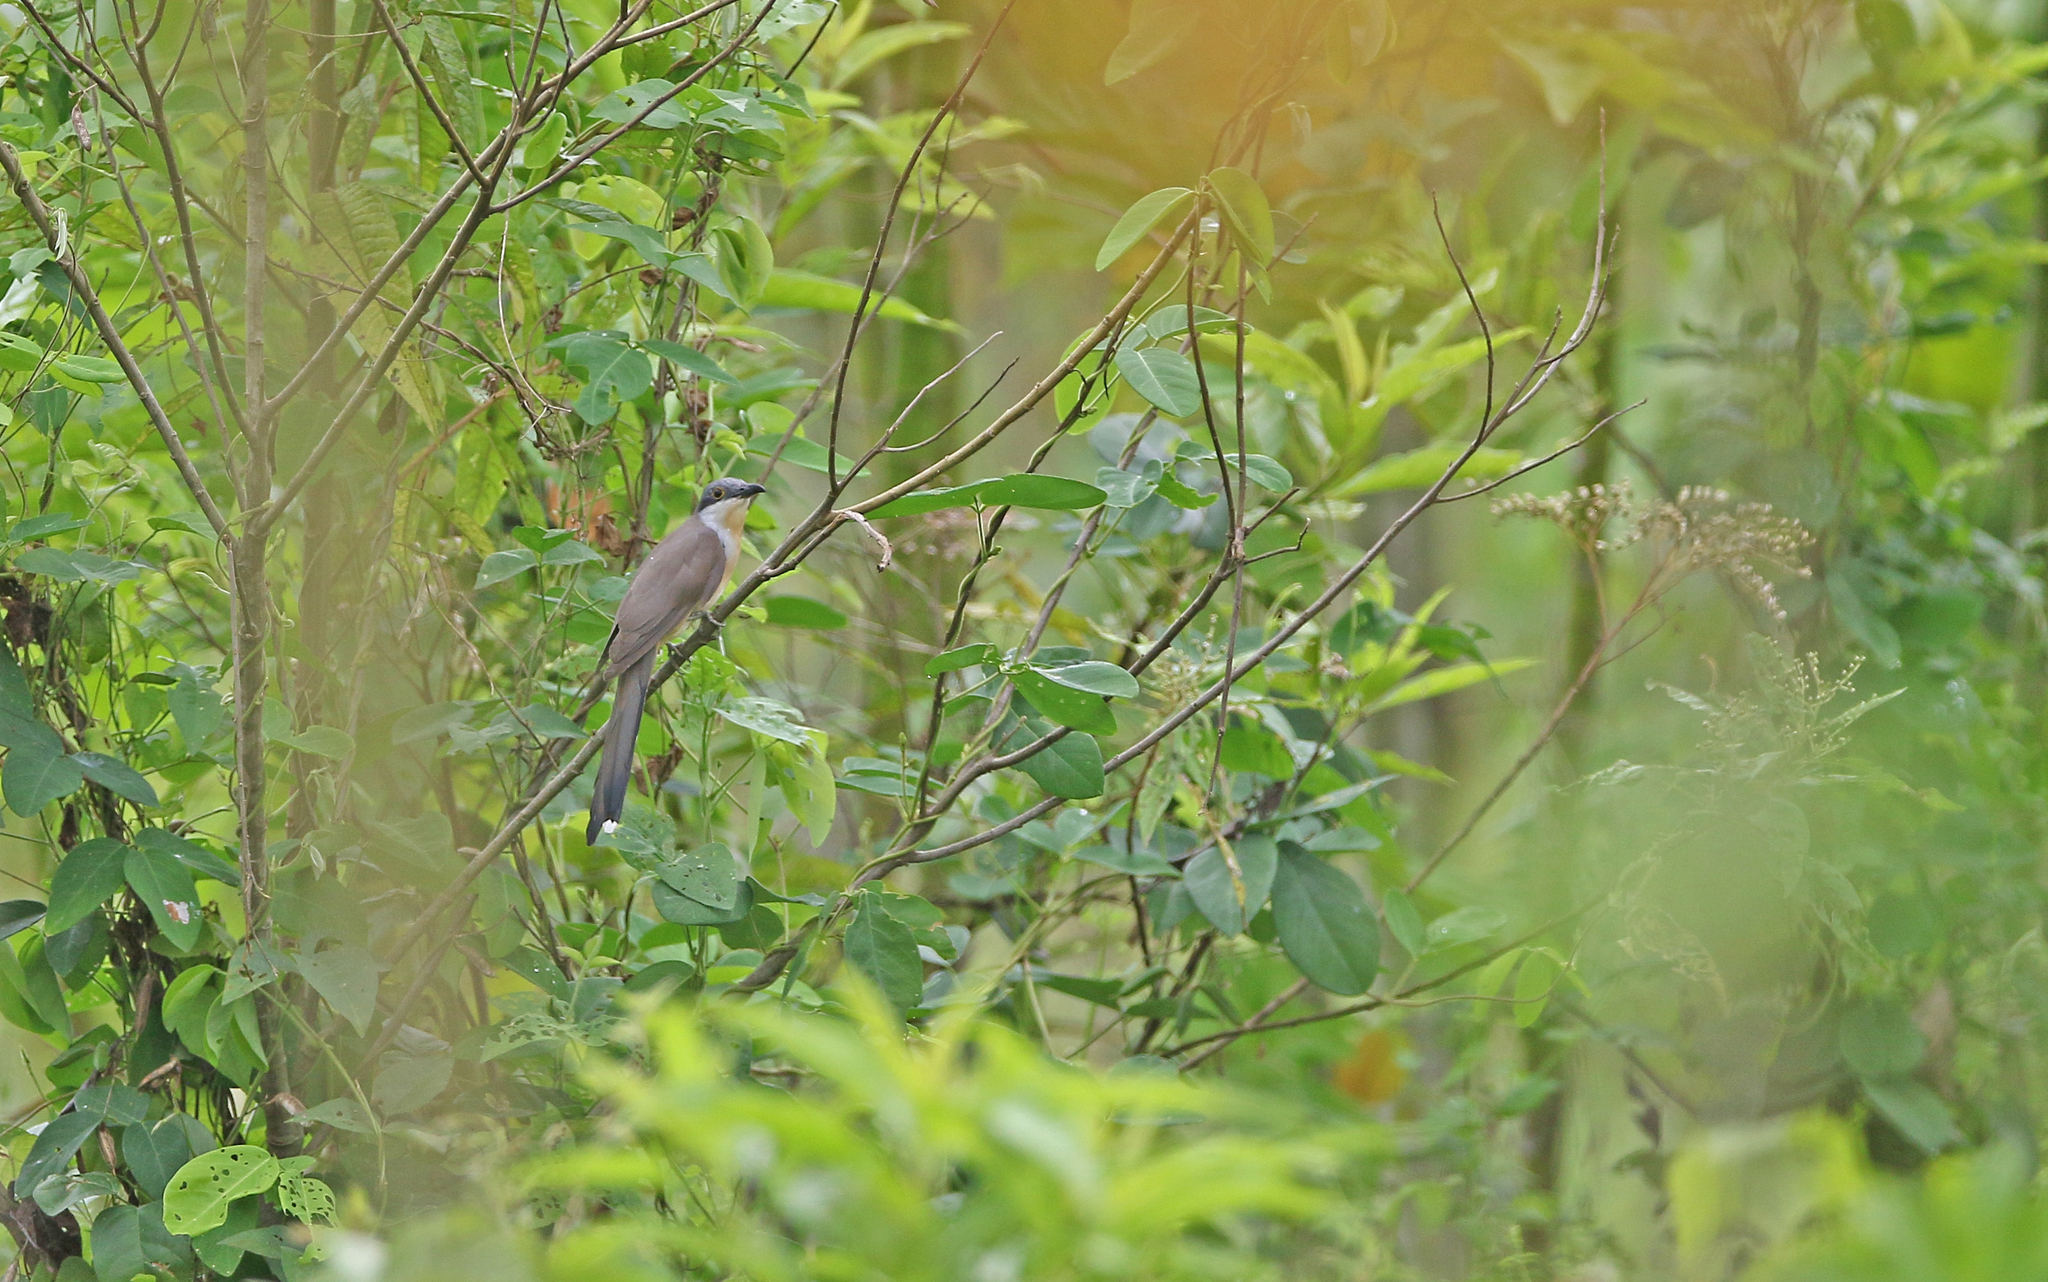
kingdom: Animalia
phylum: Chordata
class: Aves
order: Cuculiformes
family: Cuculidae
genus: Coccyzus
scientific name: Coccyzus melacoryphus
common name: Dark-billed cuckoo
